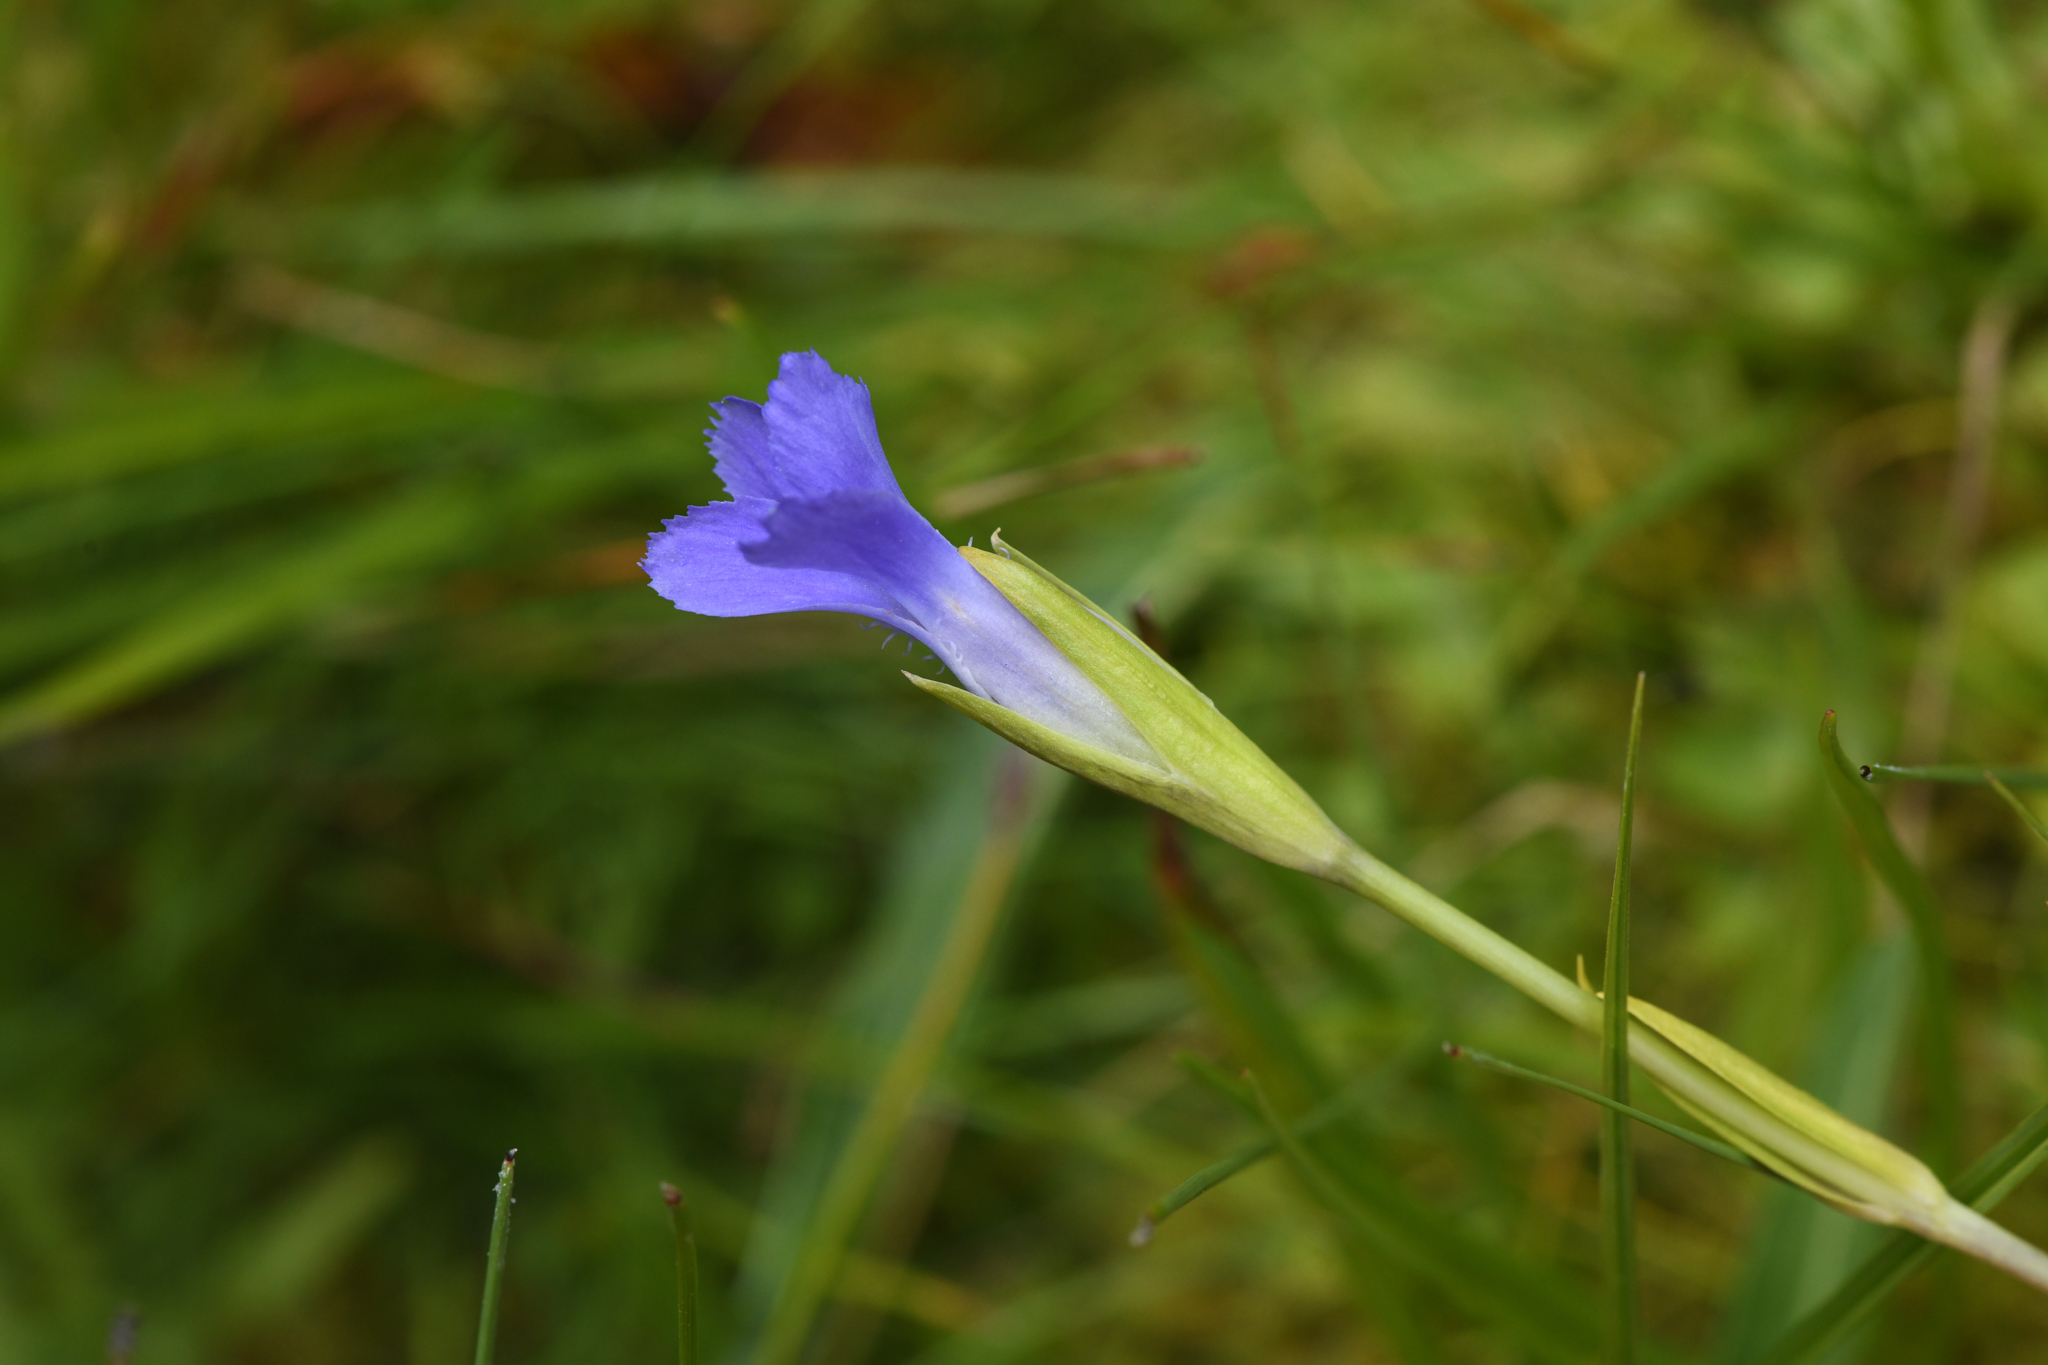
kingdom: Plantae
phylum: Tracheophyta
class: Magnoliopsida
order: Gentianales
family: Gentianaceae
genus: Gentianopsis
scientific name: Gentianopsis simplex
